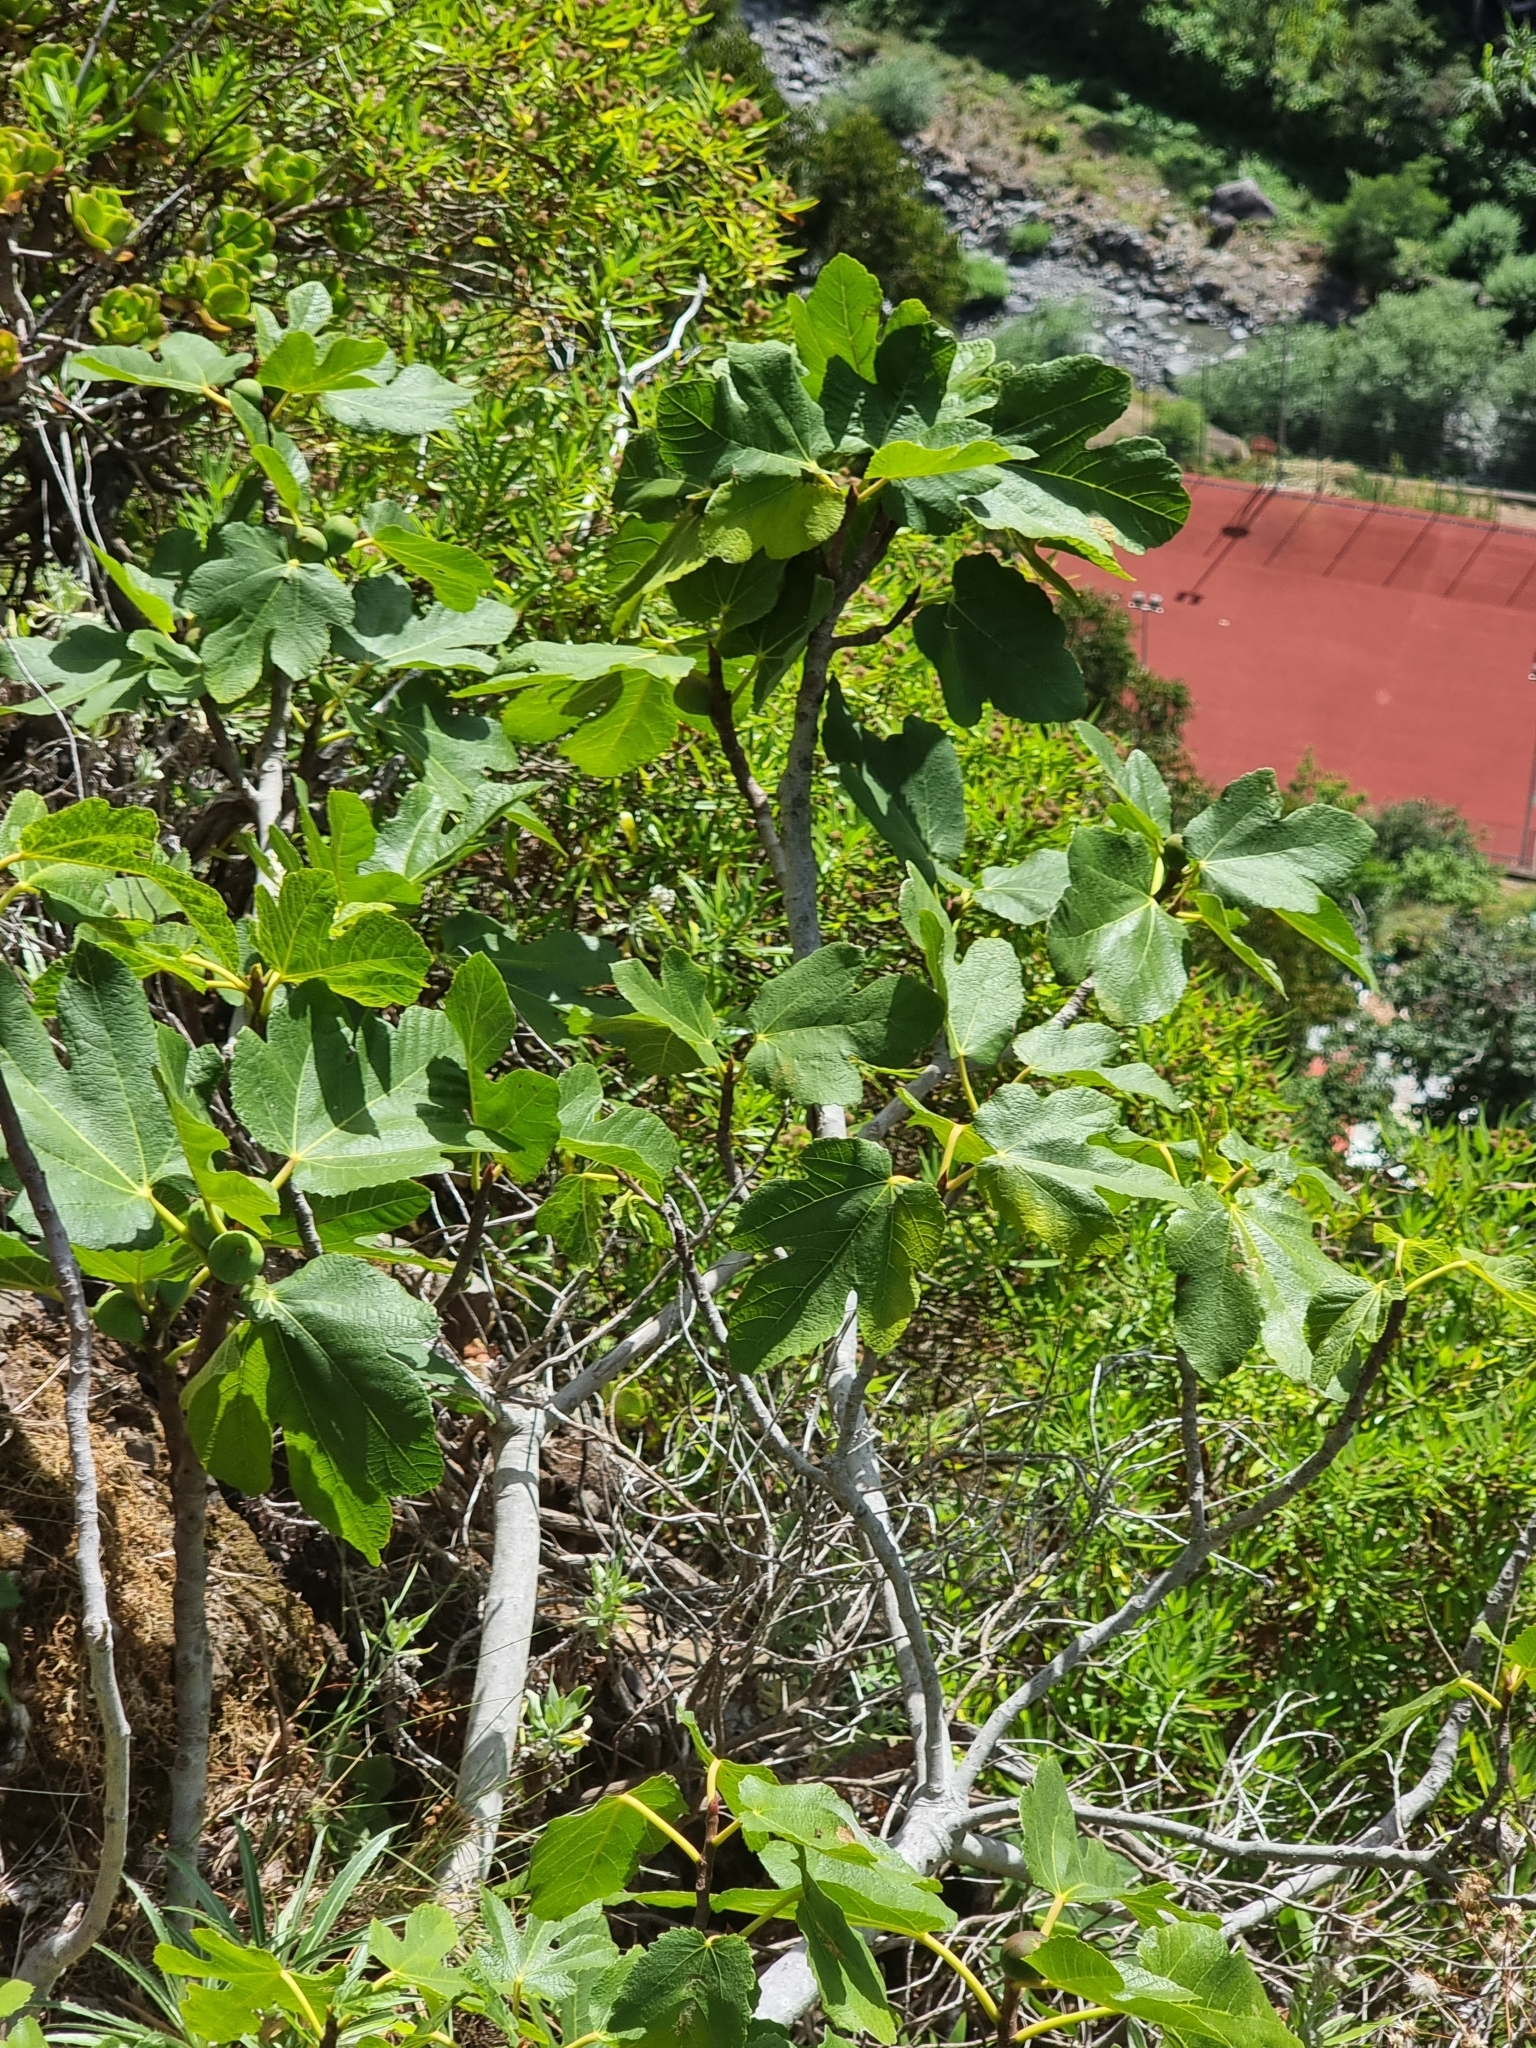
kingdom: Plantae
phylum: Tracheophyta
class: Magnoliopsida
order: Rosales
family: Moraceae
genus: Ficus
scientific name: Ficus carica
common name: Fig
